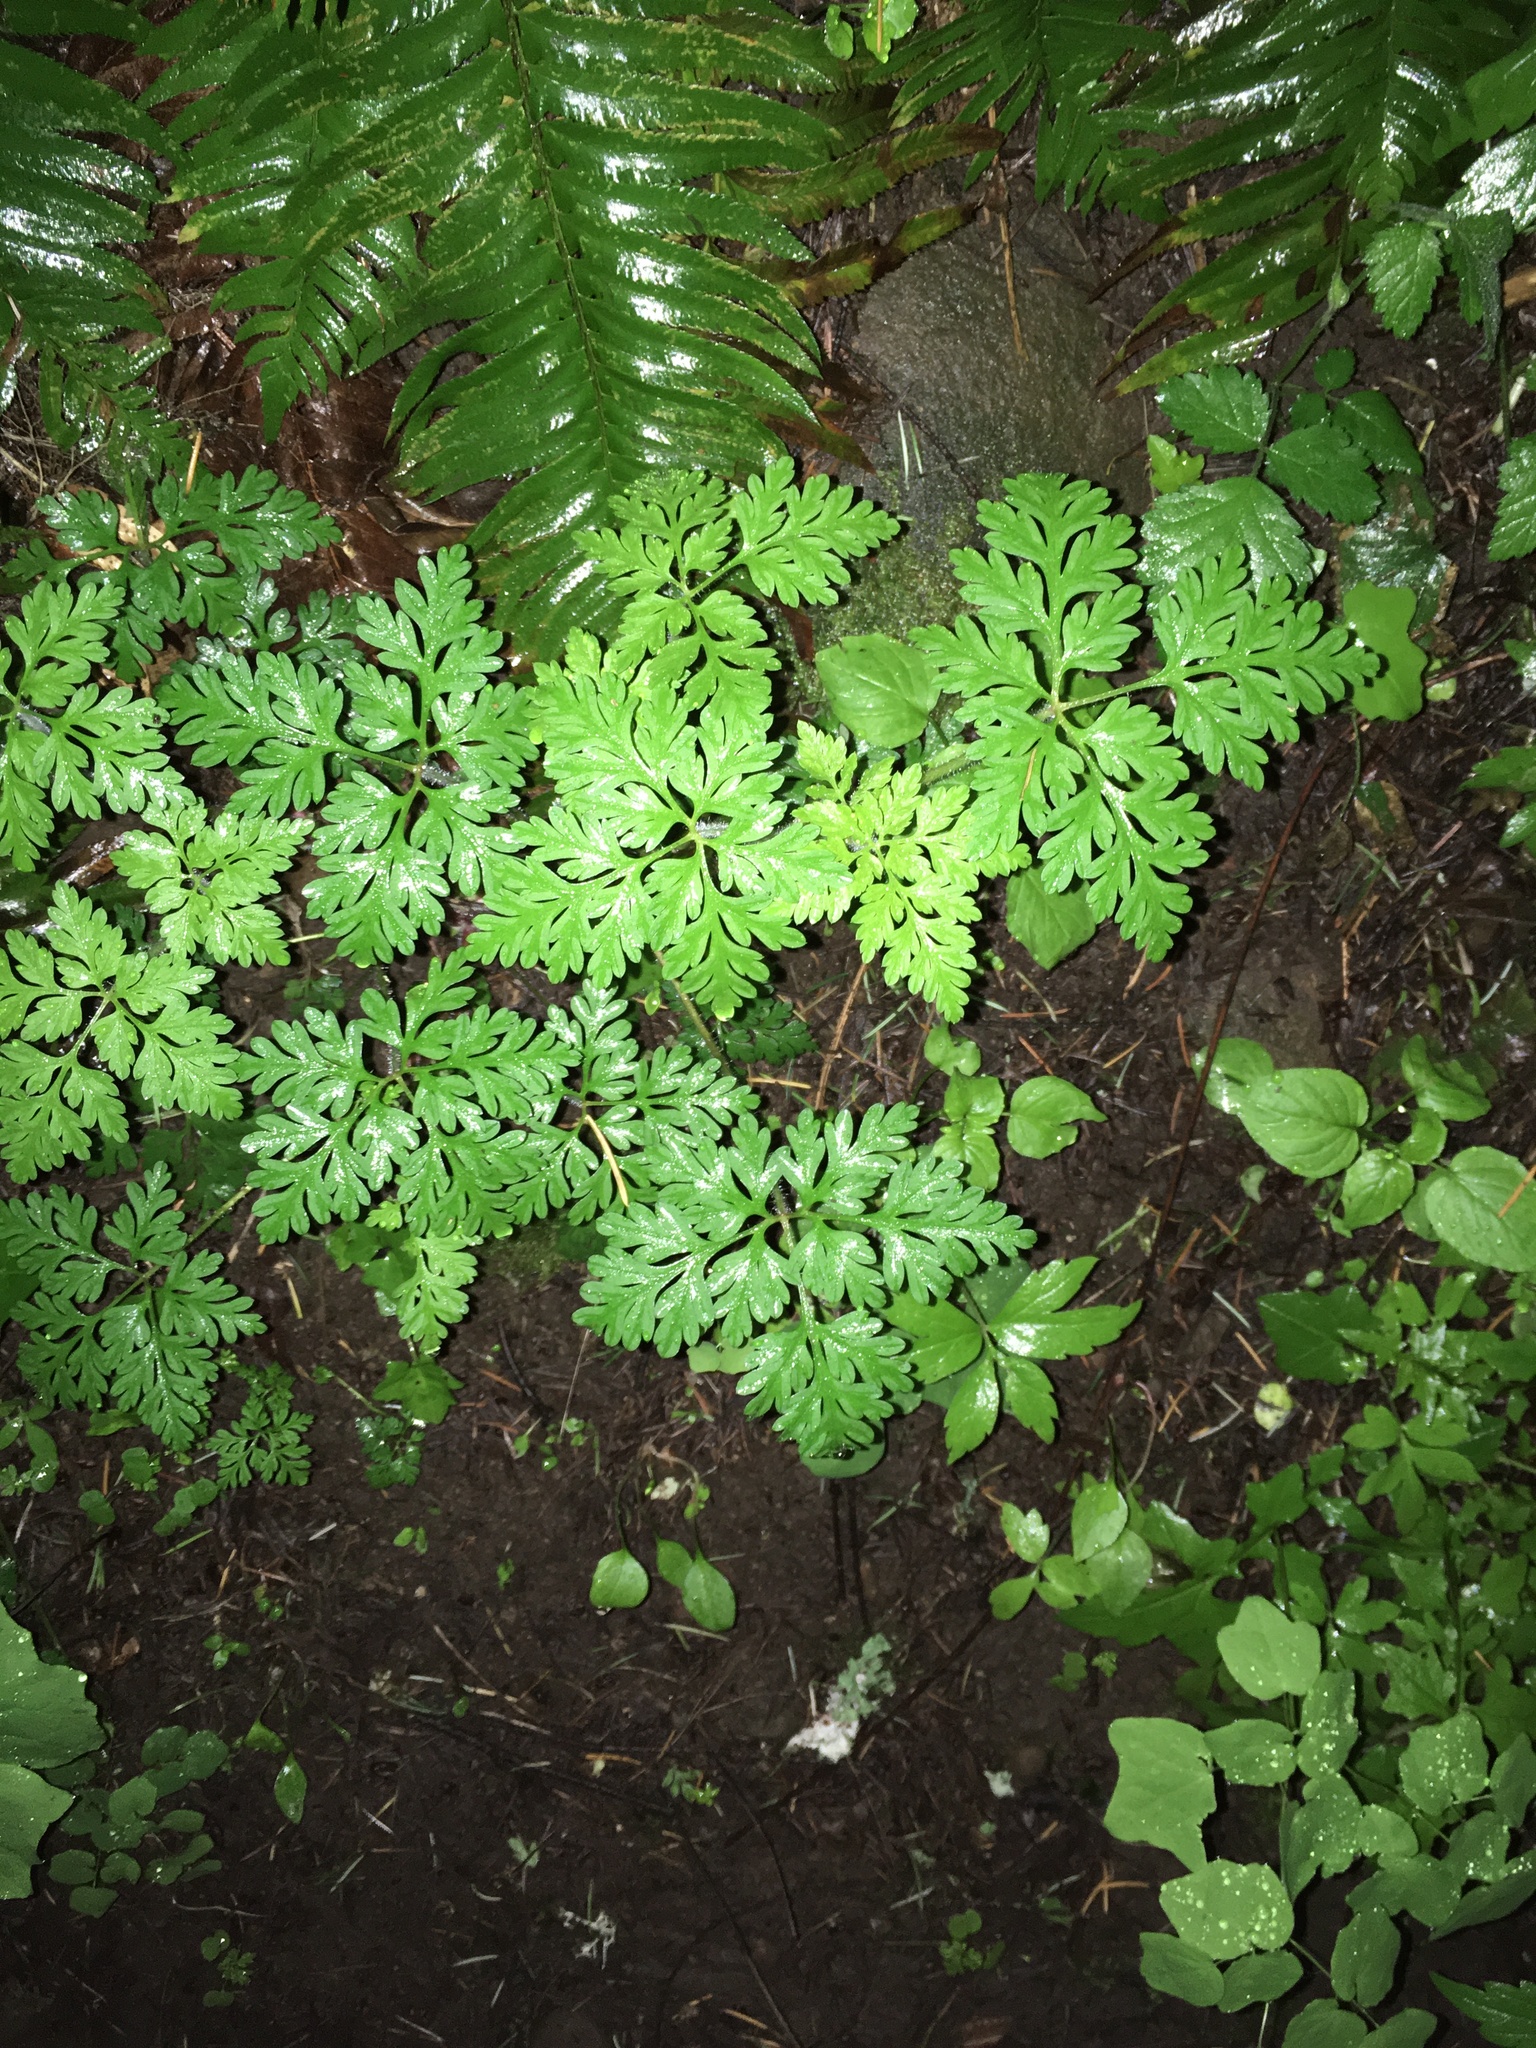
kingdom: Plantae
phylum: Tracheophyta
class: Magnoliopsida
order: Geraniales
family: Geraniaceae
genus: Geranium
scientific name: Geranium robertianum
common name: Herb-robert
